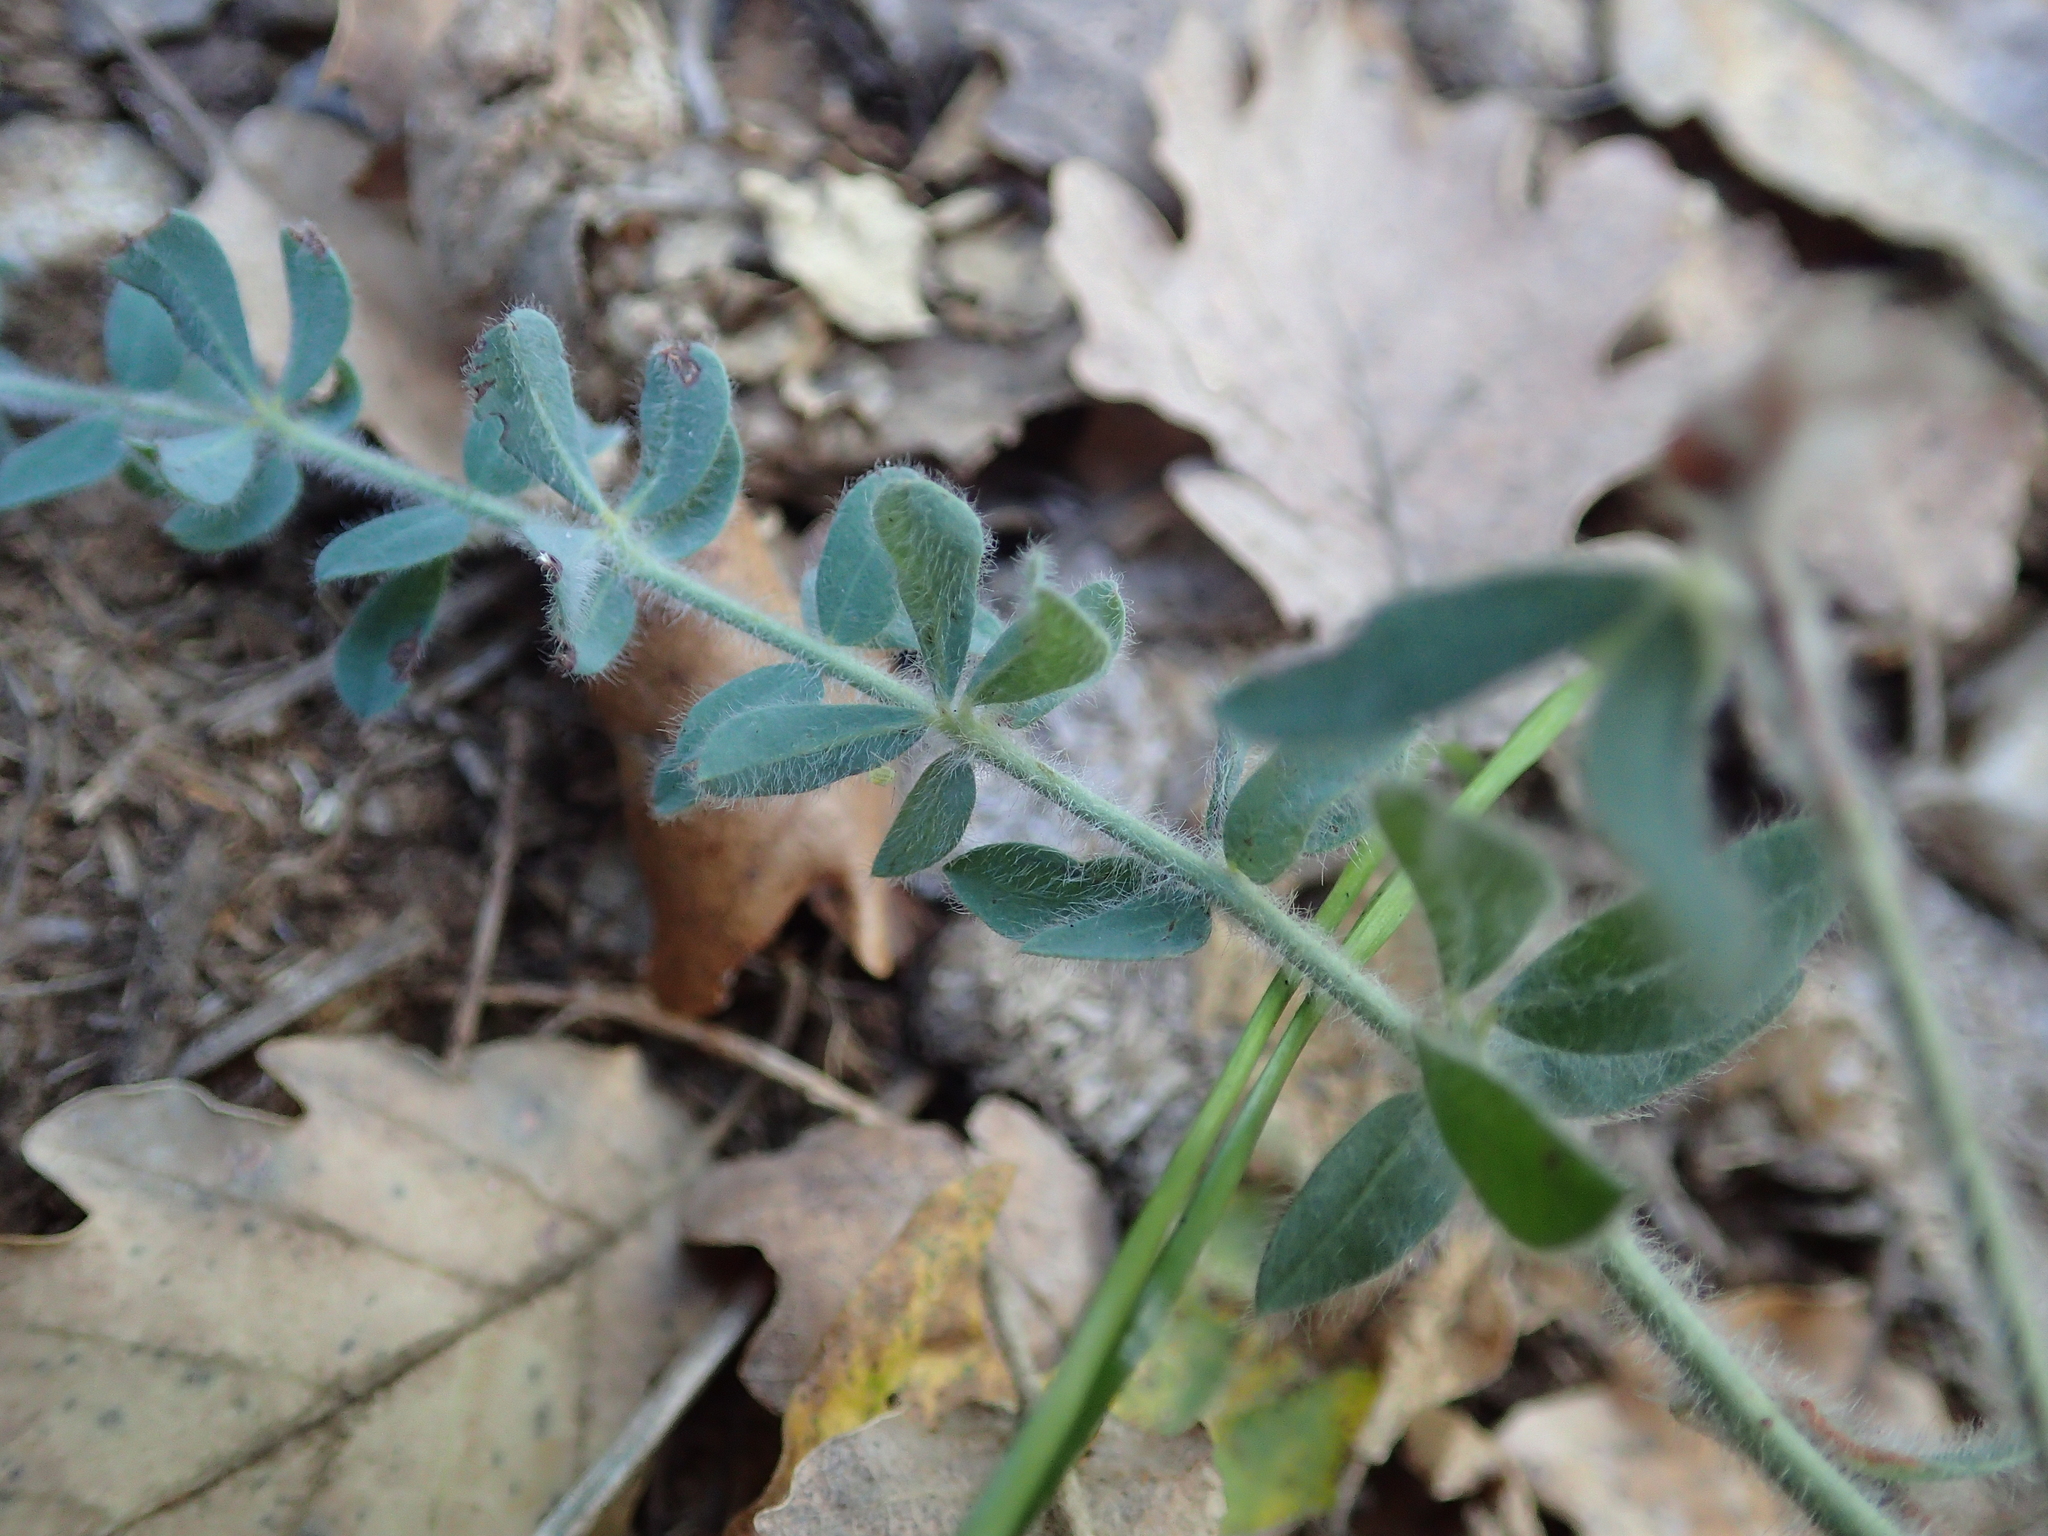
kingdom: Plantae
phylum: Tracheophyta
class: Magnoliopsida
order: Fabales
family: Fabaceae
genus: Lotus
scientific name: Lotus dorycnium
